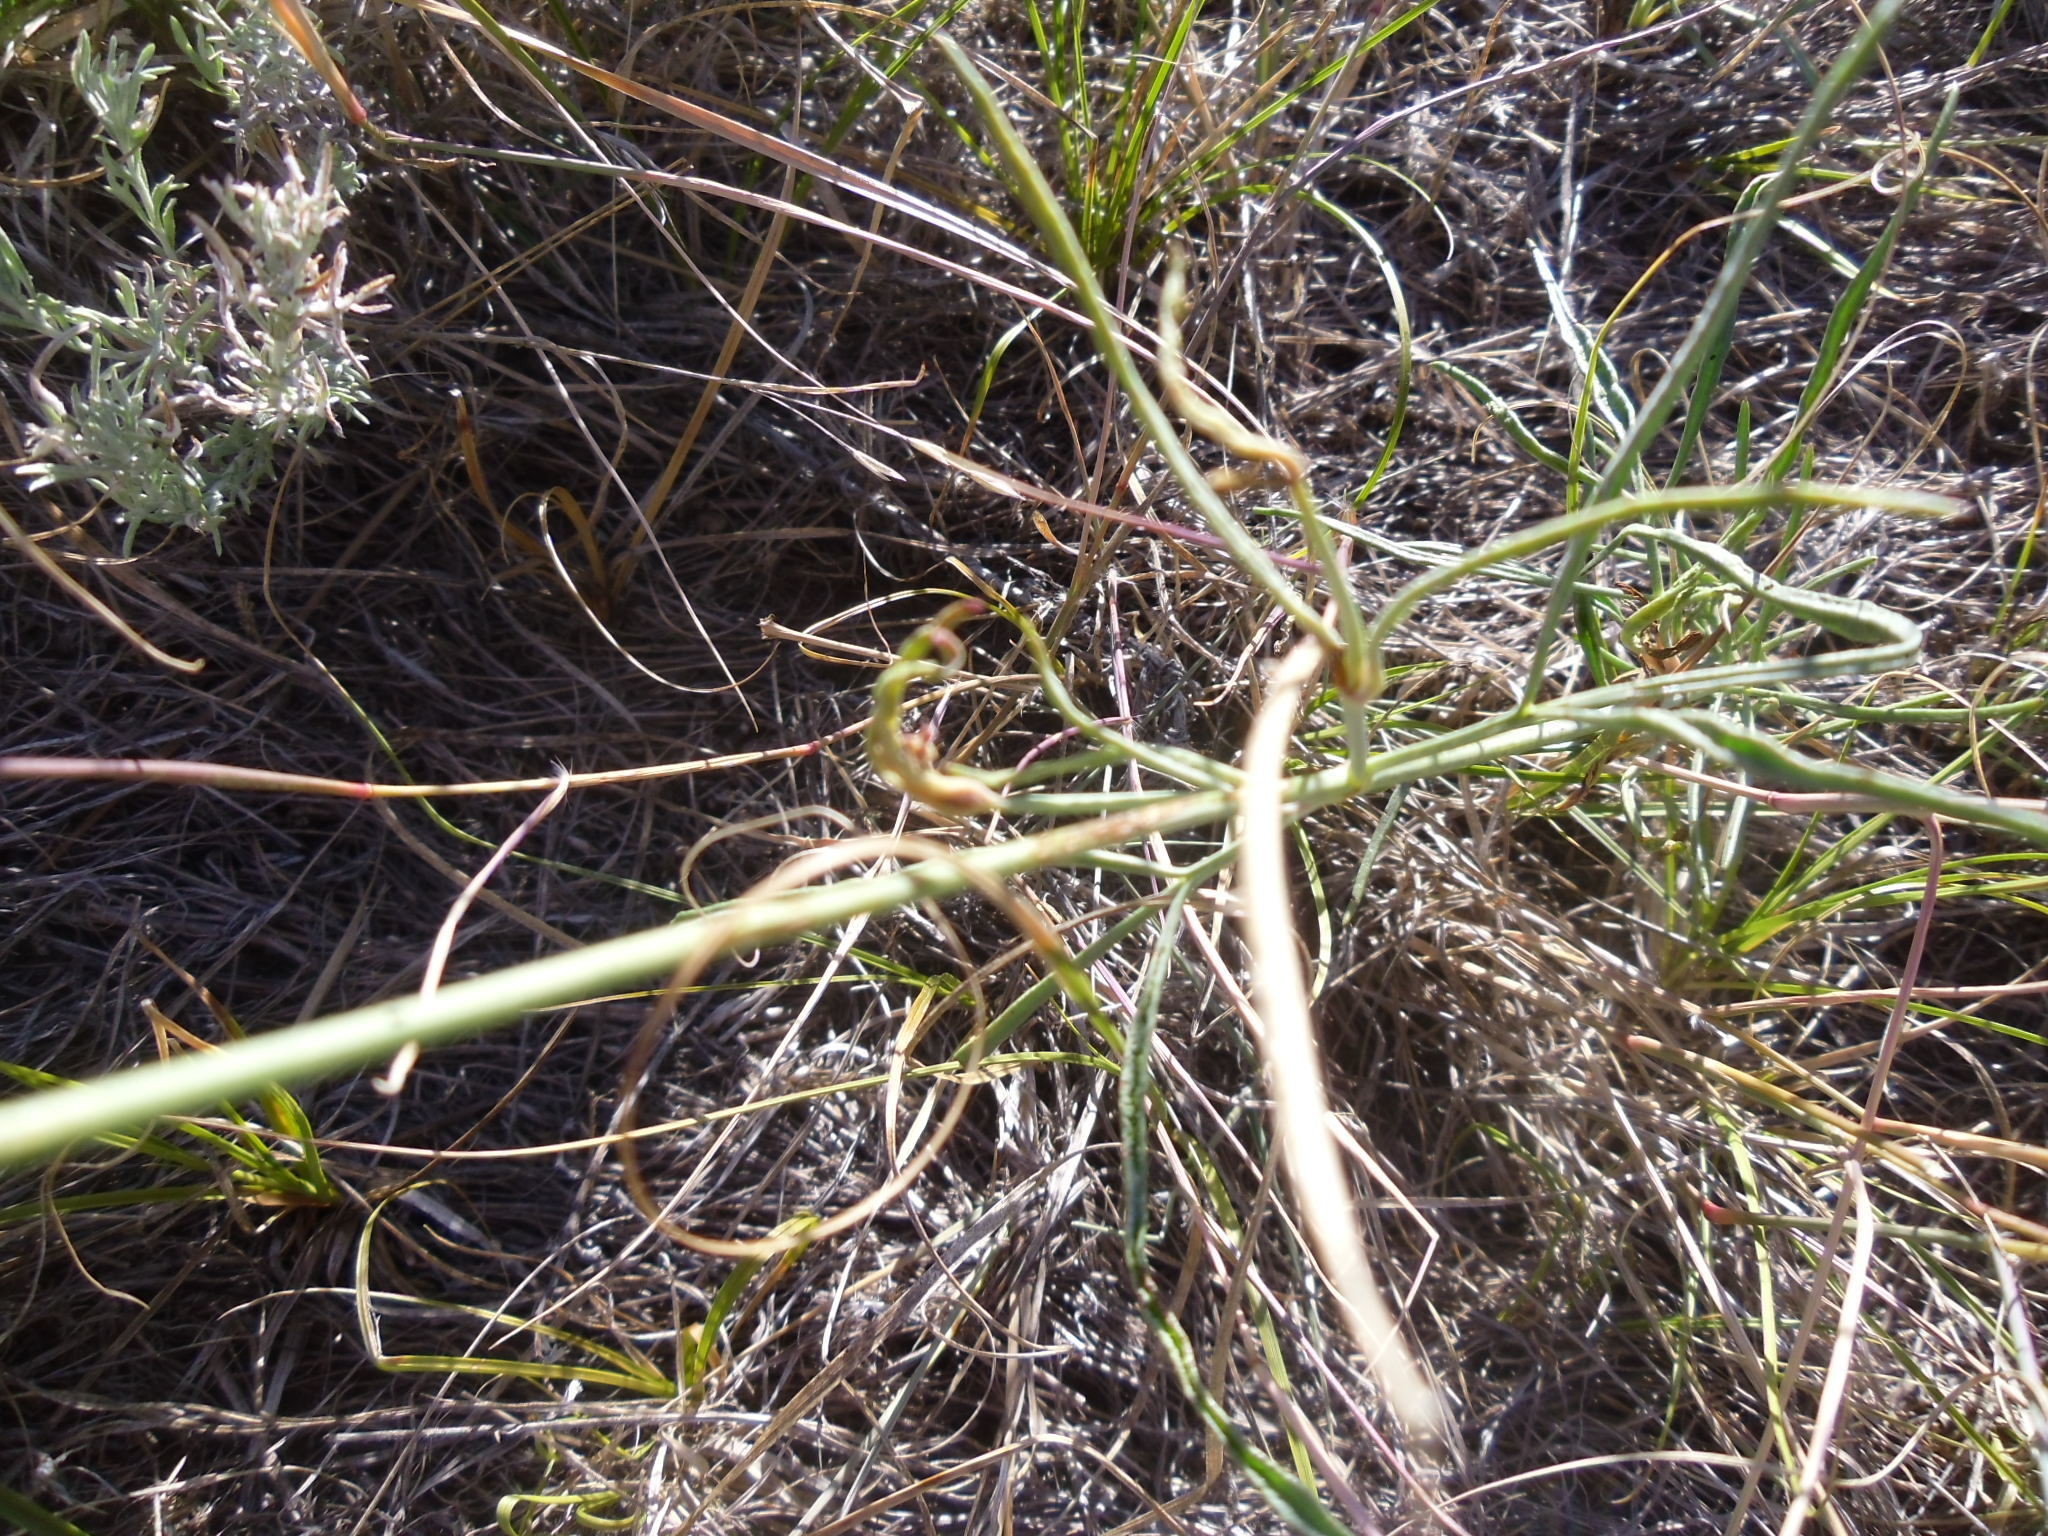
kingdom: Plantae
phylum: Tracheophyta
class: Magnoliopsida
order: Asterales
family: Asteraceae
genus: Thelesperma
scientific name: Thelesperma megapotamicum
